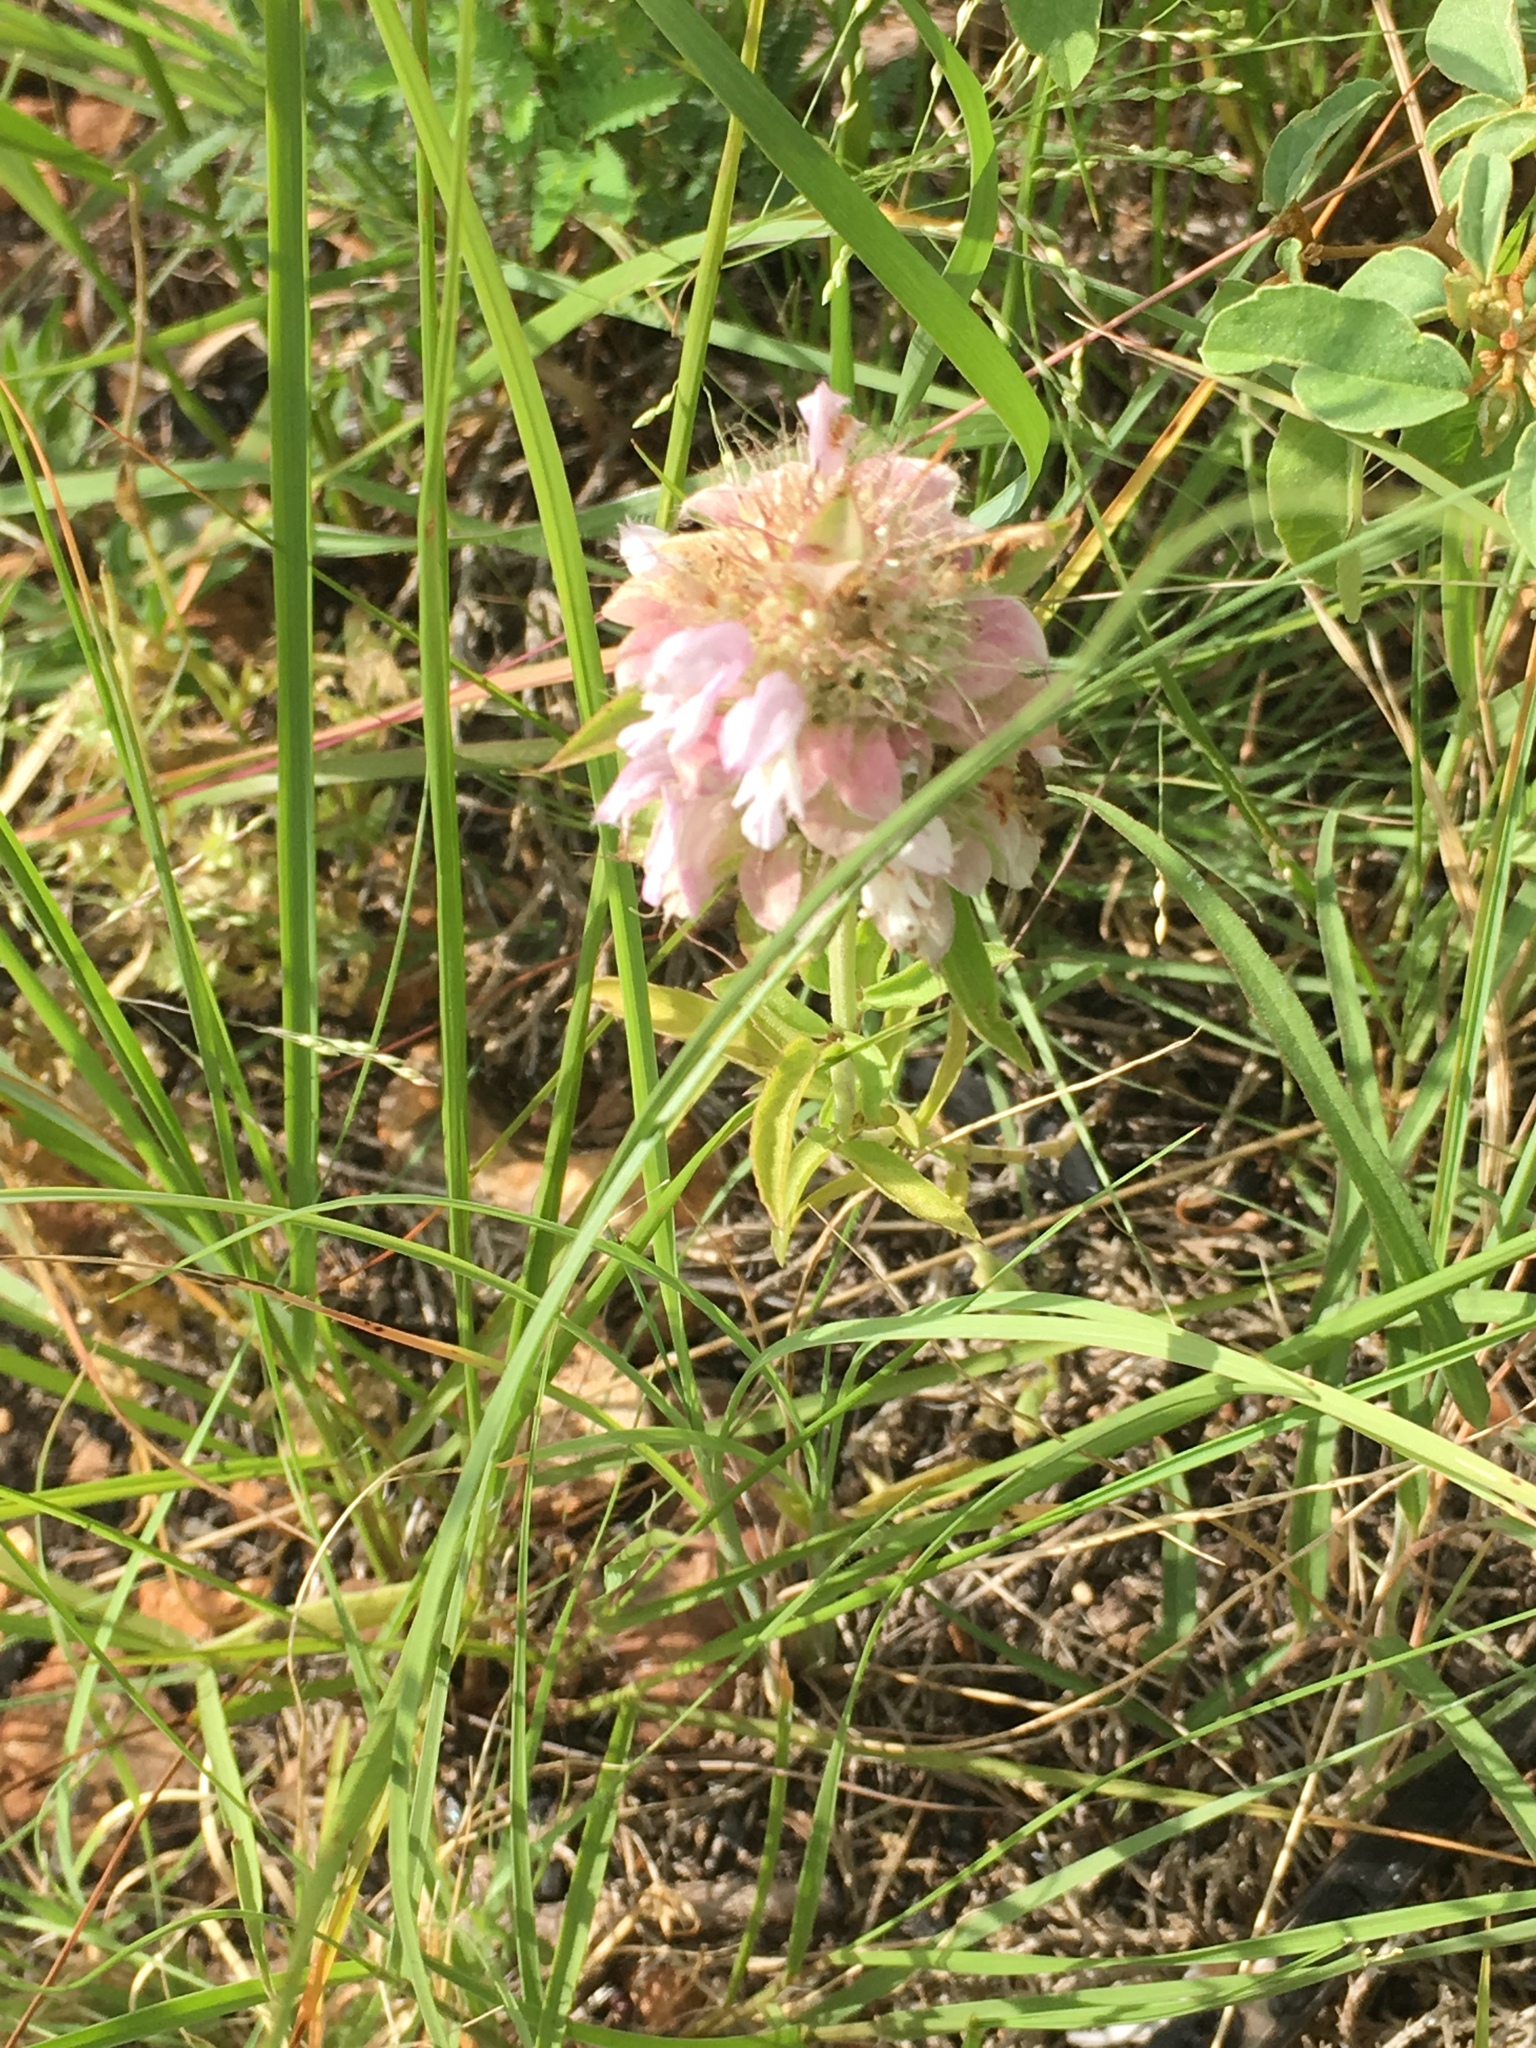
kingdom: Plantae
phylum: Tracheophyta
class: Magnoliopsida
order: Lamiales
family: Lamiaceae
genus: Monarda
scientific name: Monarda citriodora
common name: Lemon beebalm
